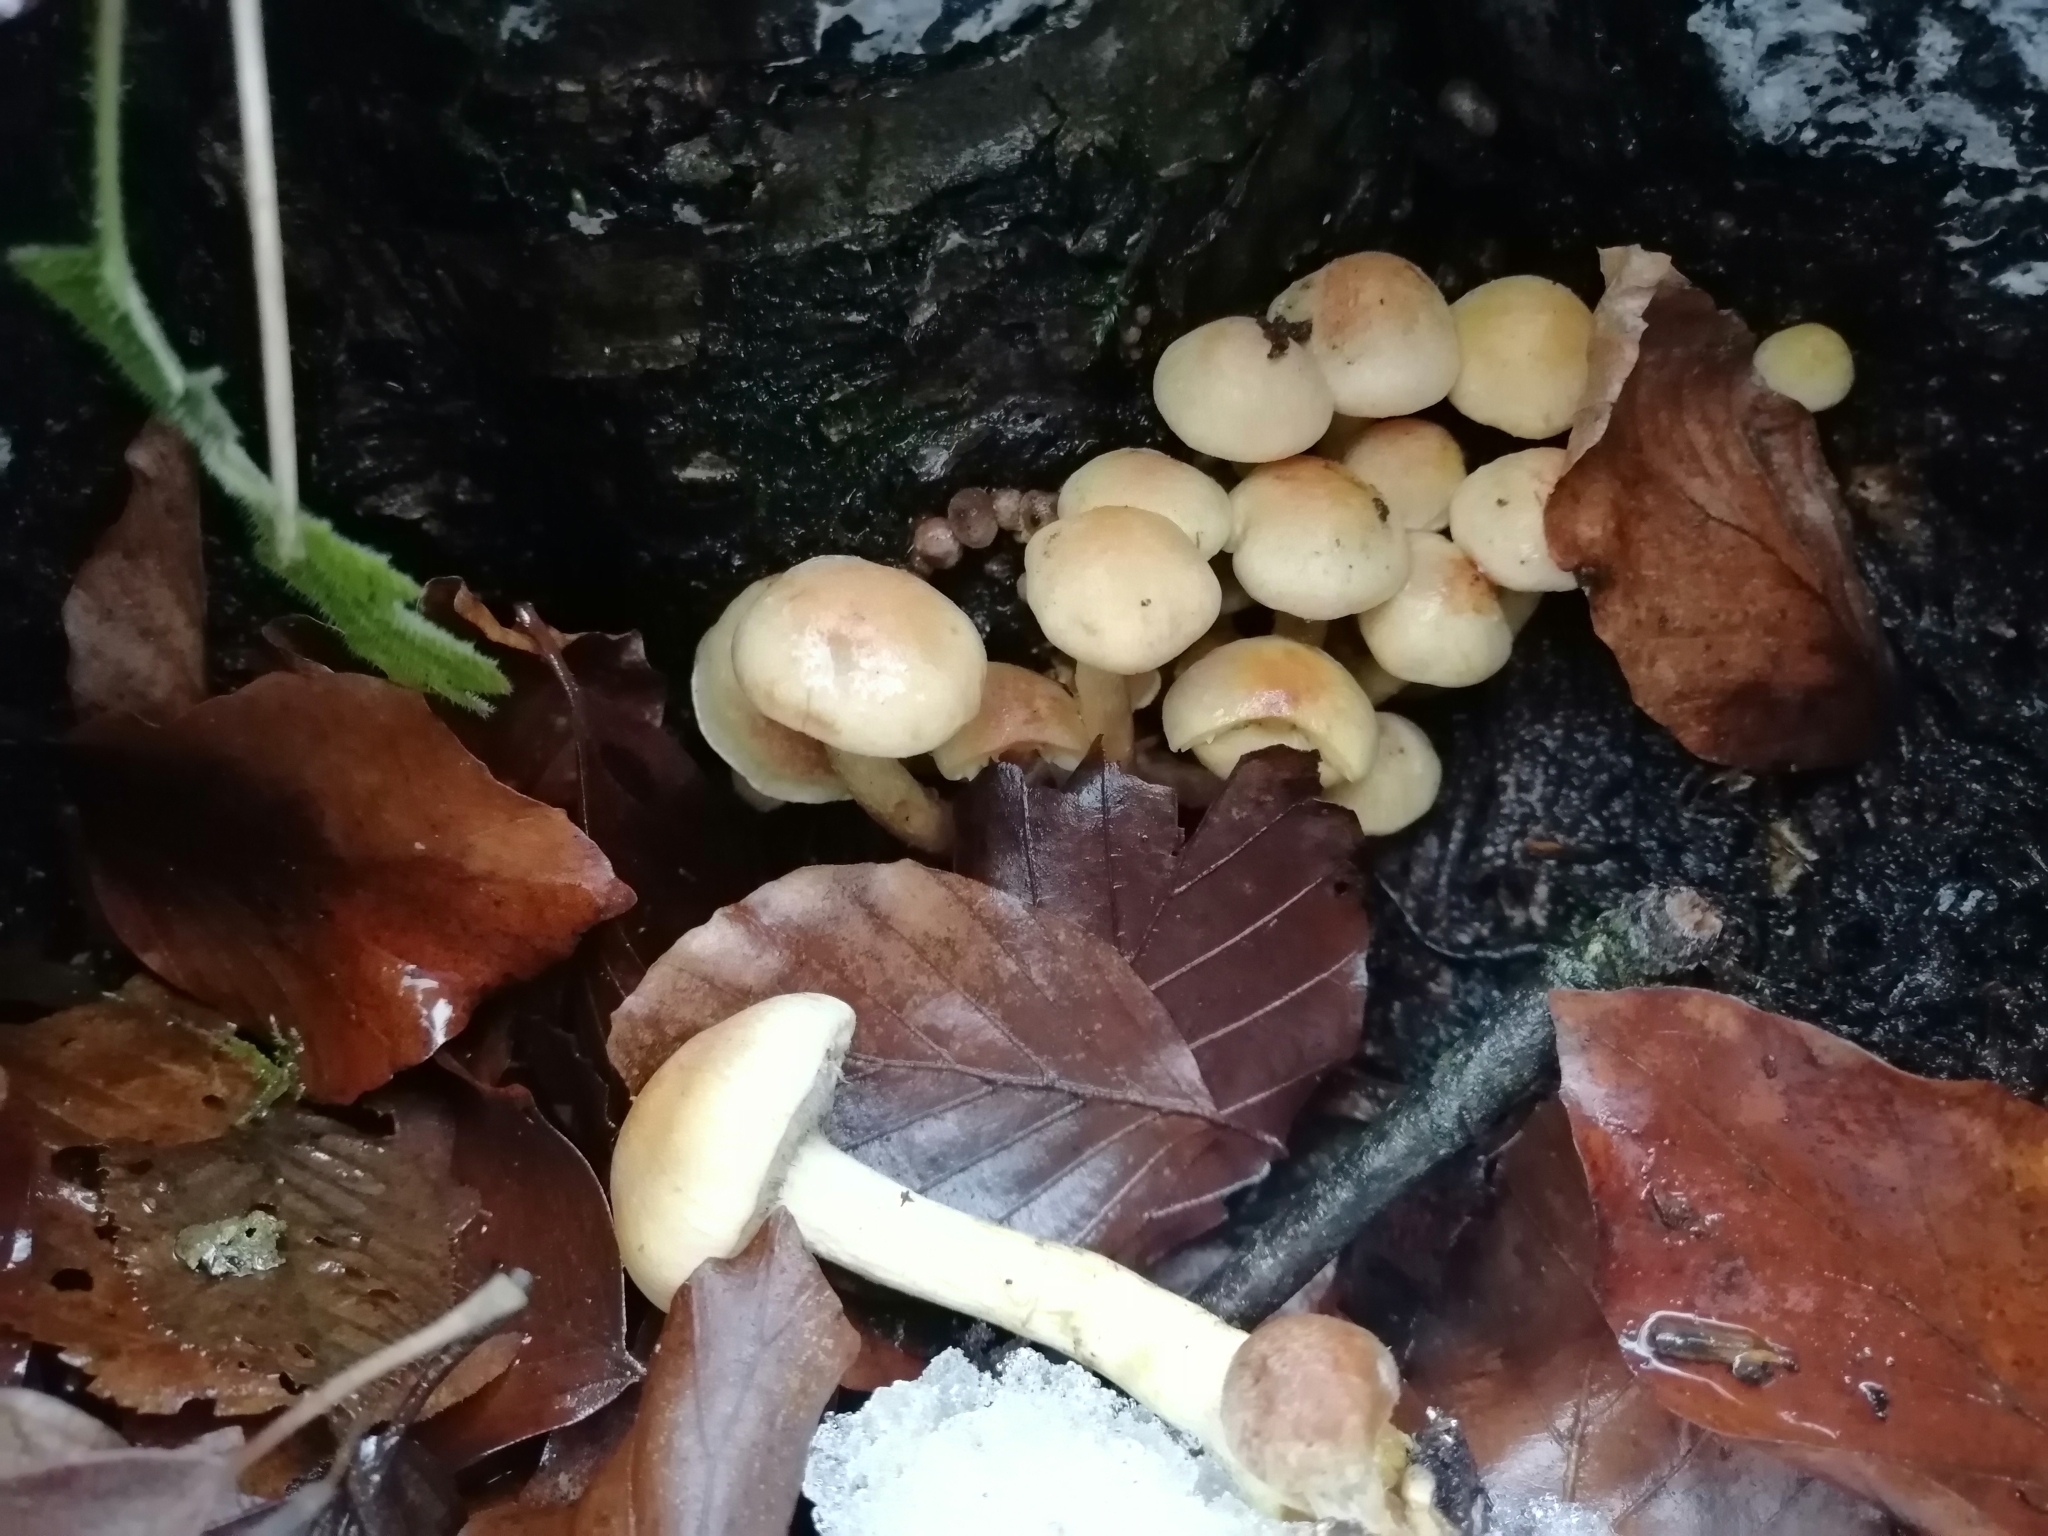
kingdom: Fungi
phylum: Basidiomycota
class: Agaricomycetes
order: Agaricales
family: Strophariaceae
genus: Hypholoma
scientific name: Hypholoma fasciculare
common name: Sulphur tuft
